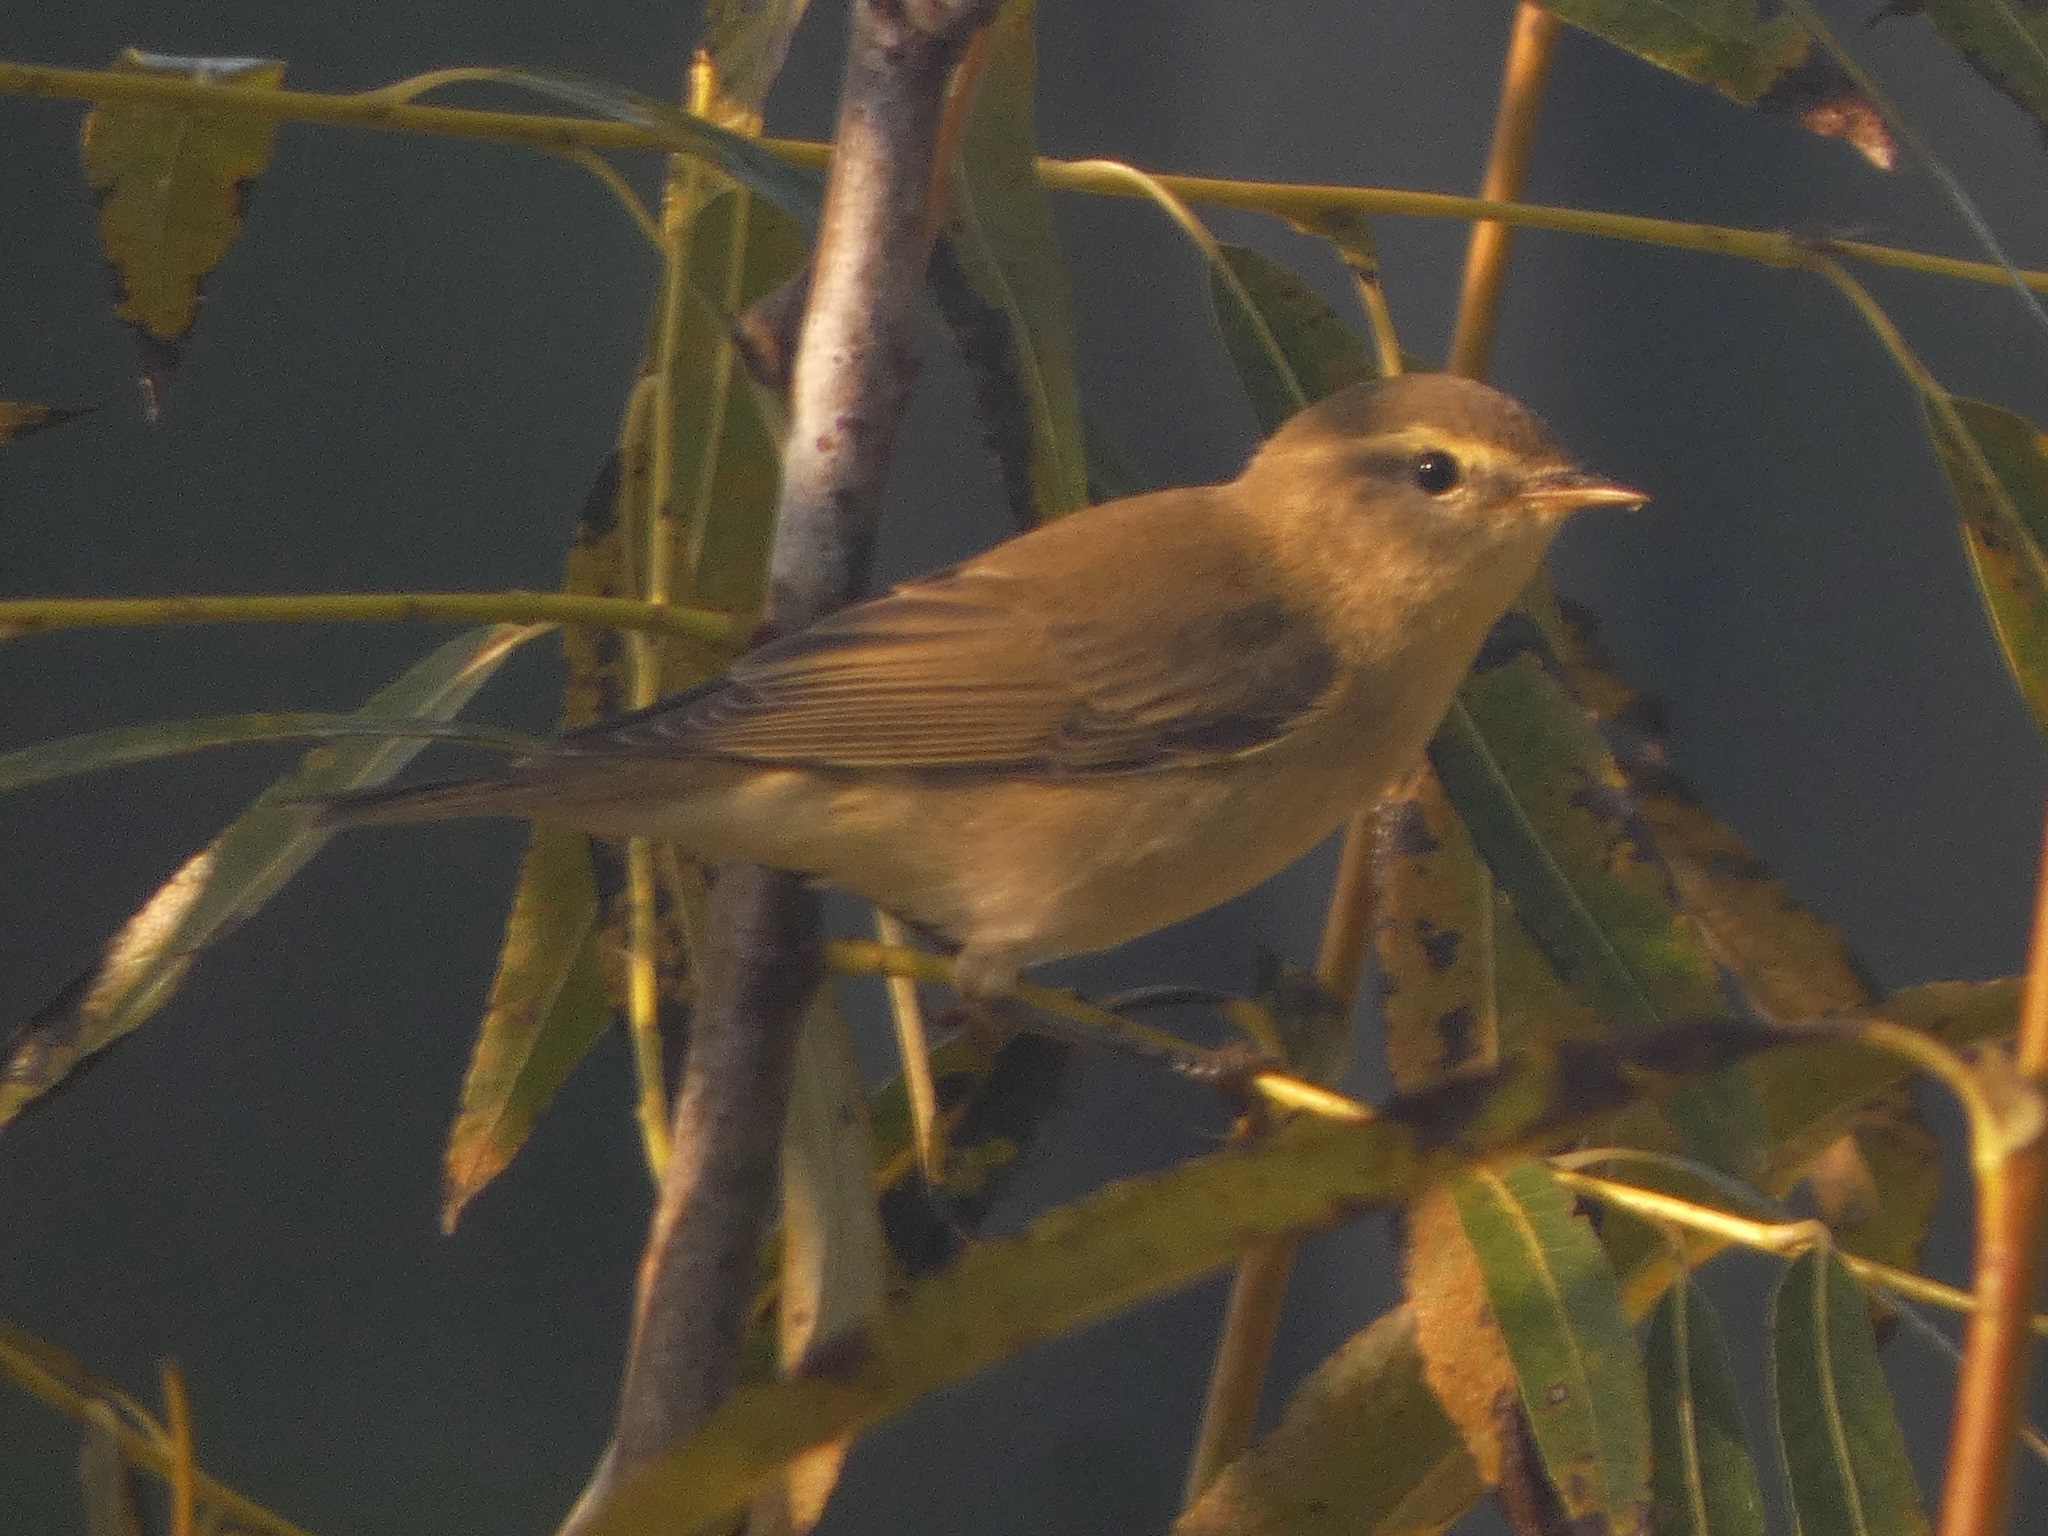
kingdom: Animalia
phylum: Chordata
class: Aves
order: Passeriformes
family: Phylloscopidae
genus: Phylloscopus
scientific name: Phylloscopus trochilus
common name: Willow warbler
